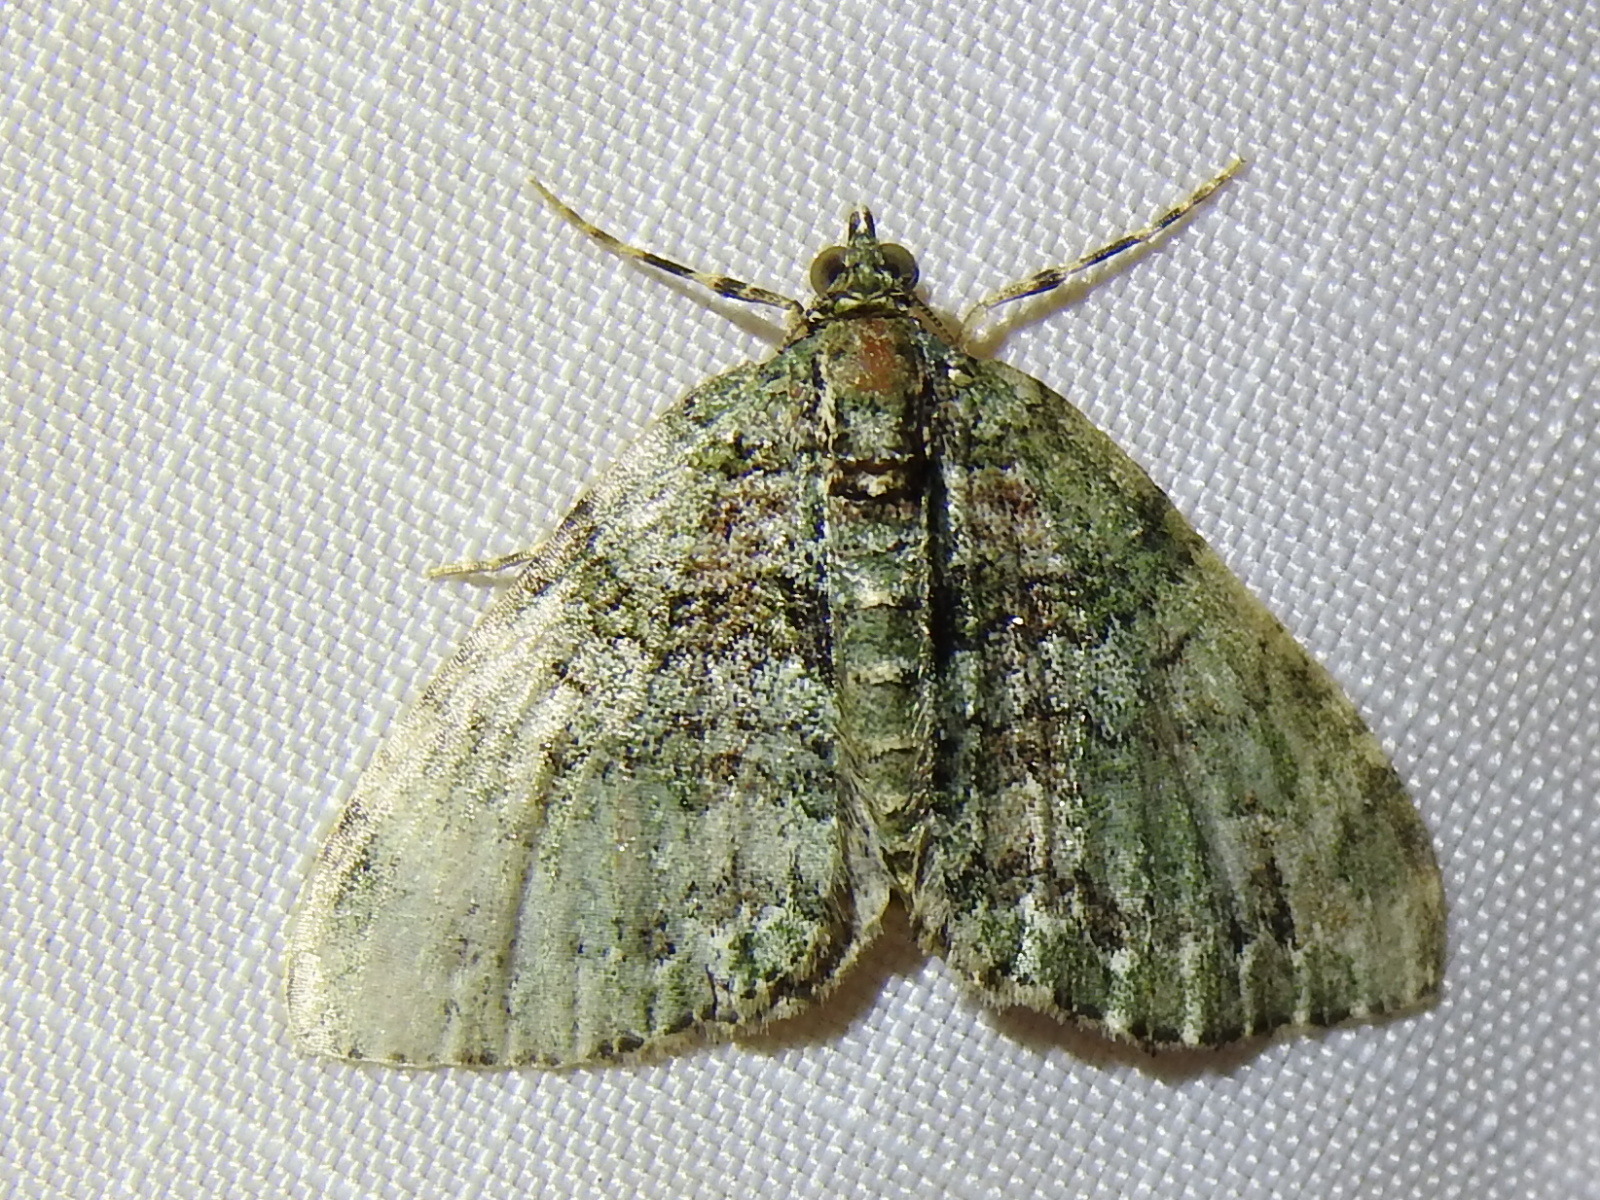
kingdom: Animalia
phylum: Arthropoda
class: Insecta
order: Lepidoptera
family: Geometridae
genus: Hammaptera
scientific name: Hammaptera parinotata
